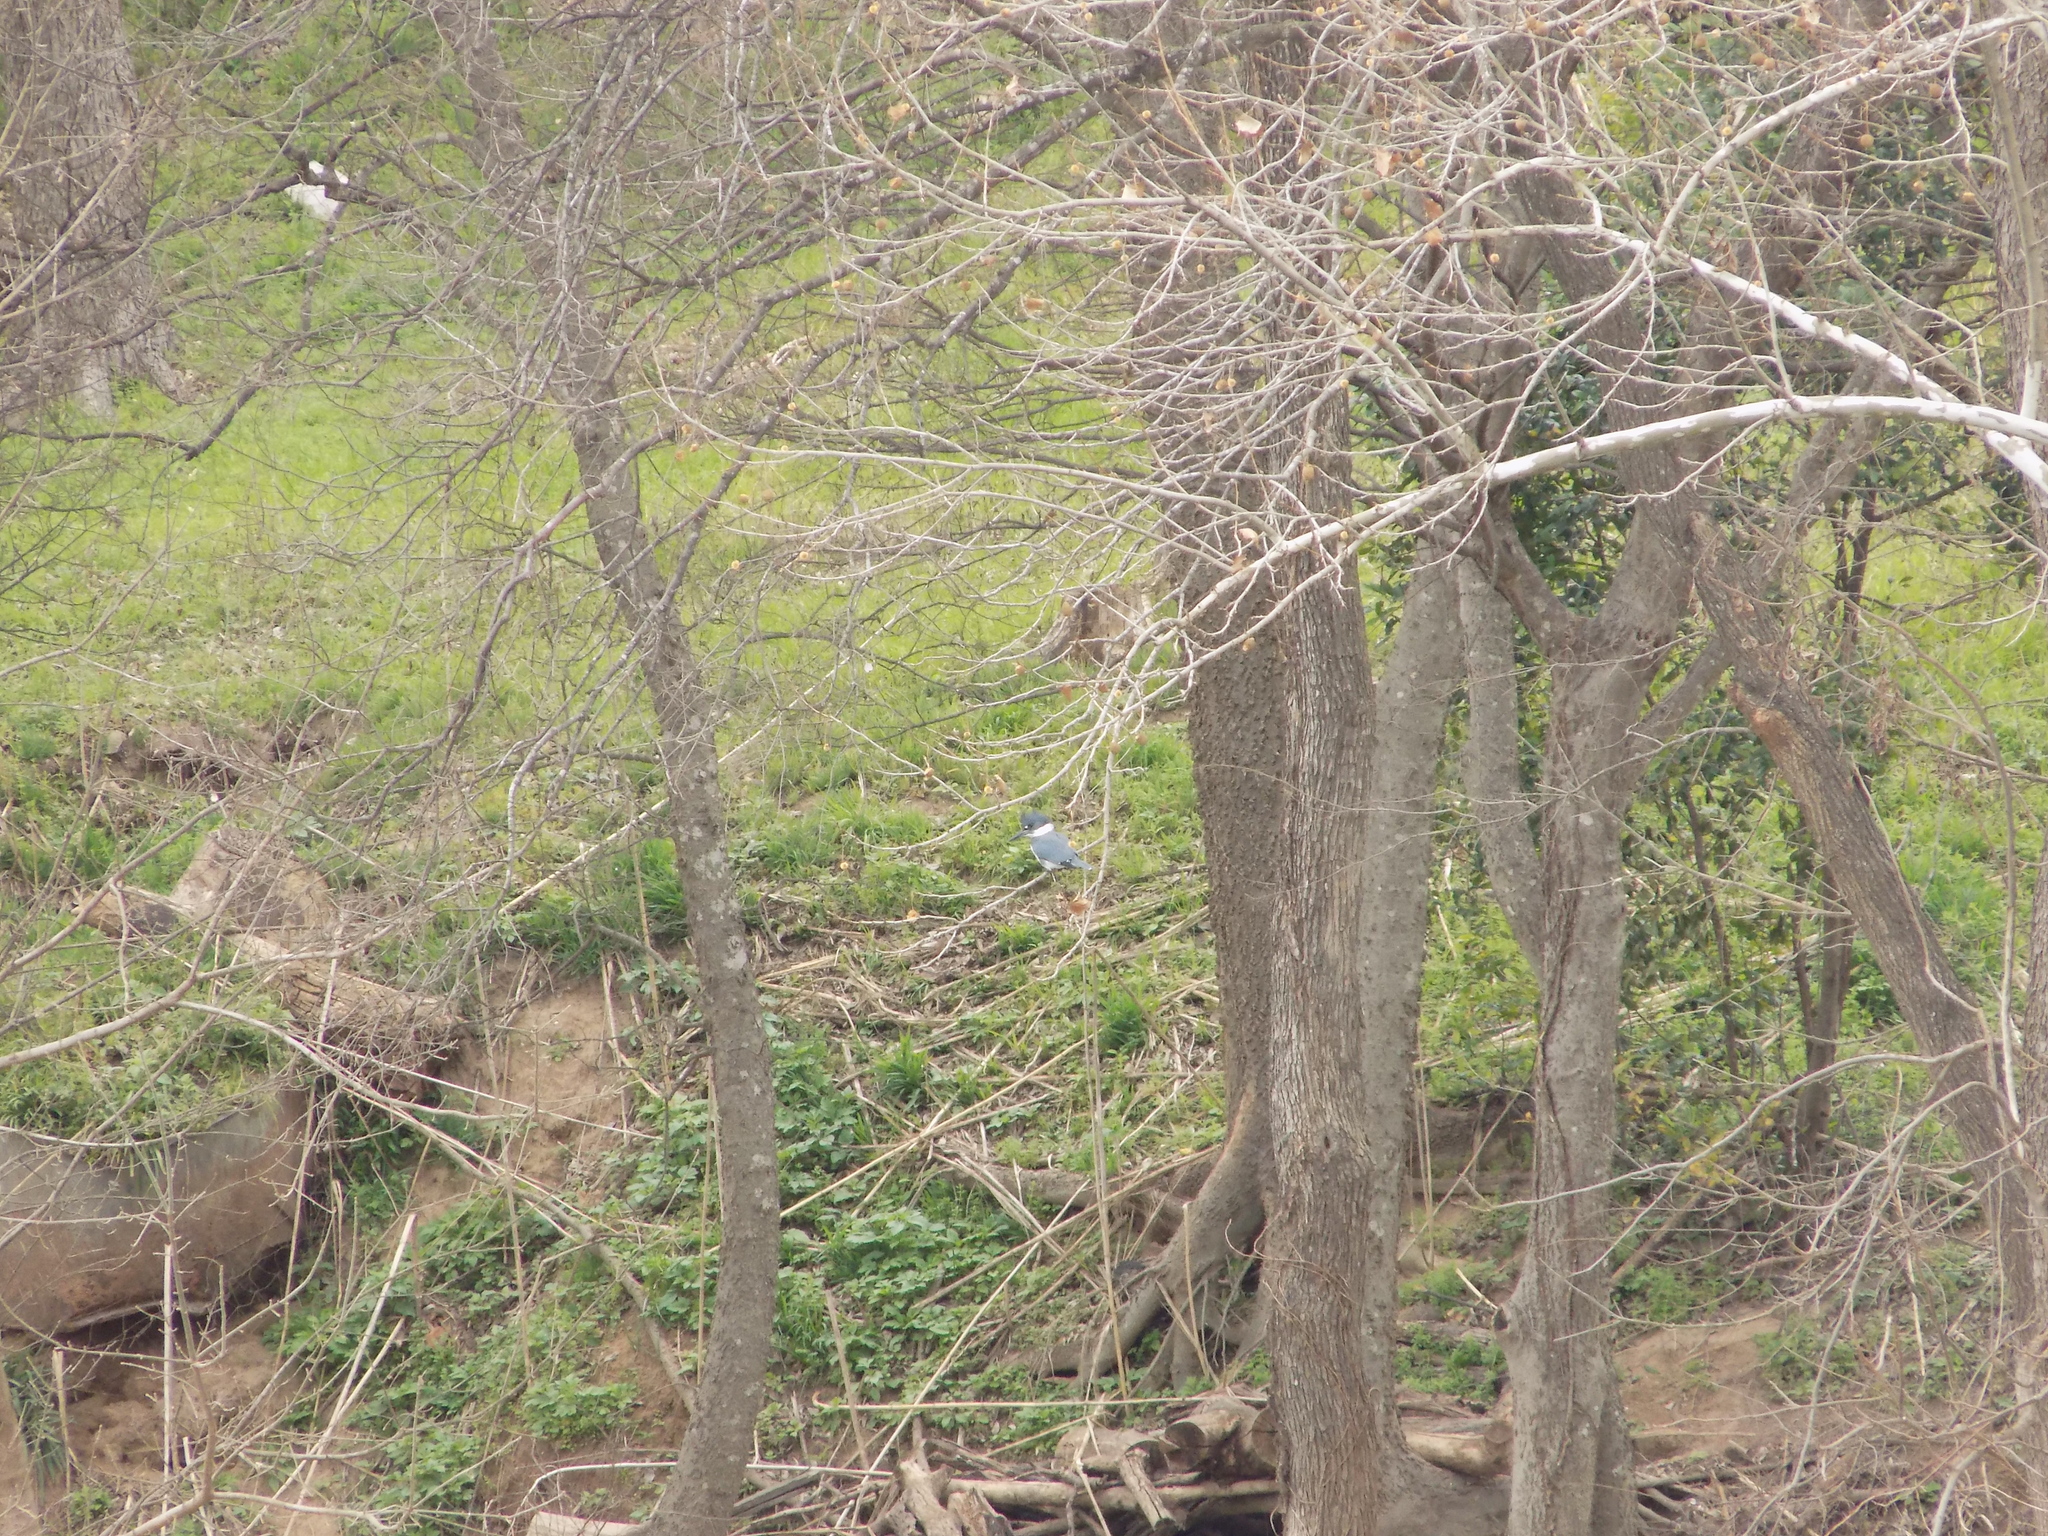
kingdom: Animalia
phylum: Chordata
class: Aves
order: Coraciiformes
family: Alcedinidae
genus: Megaceryle
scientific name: Megaceryle alcyon
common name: Belted kingfisher
